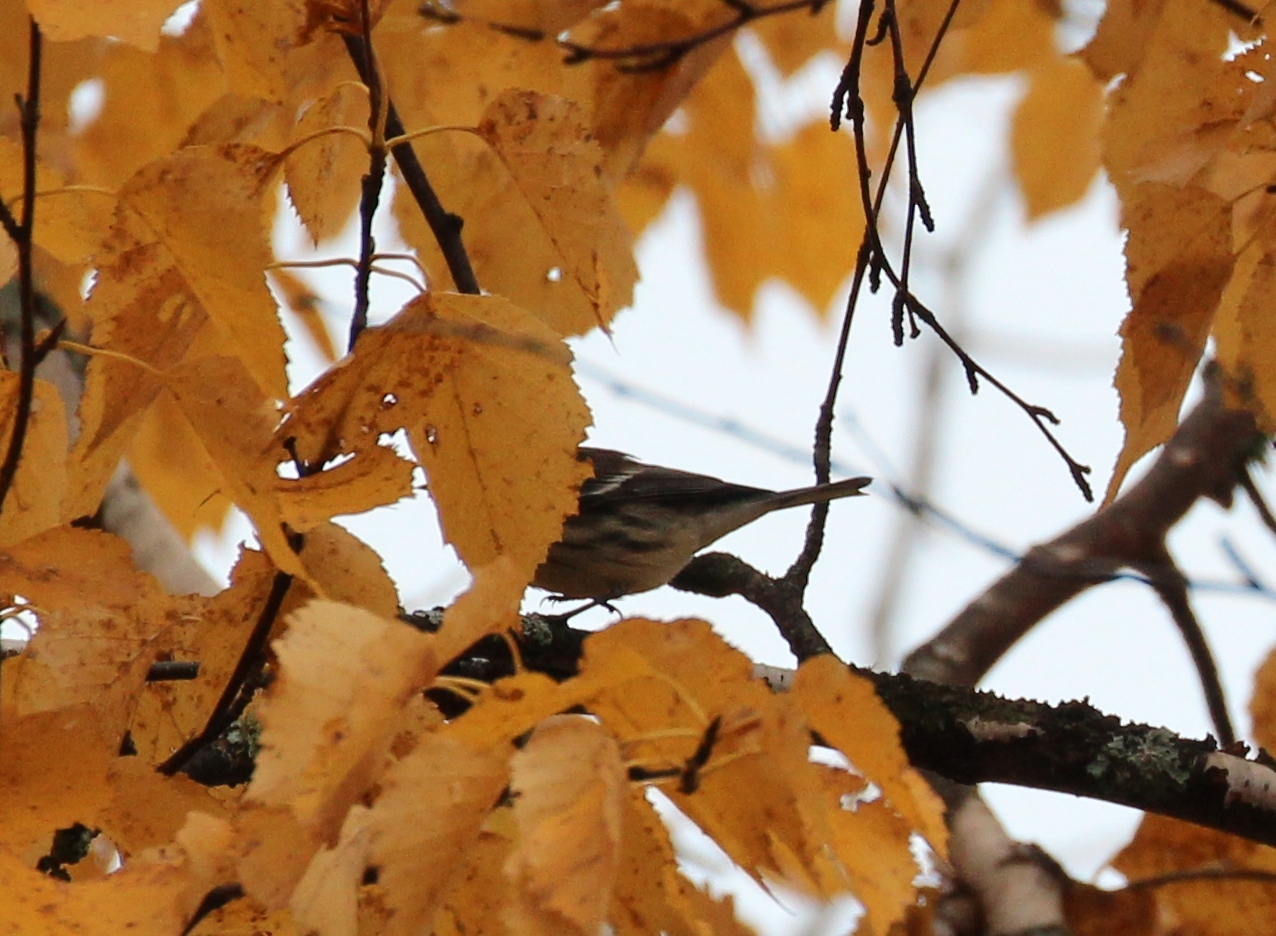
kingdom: Animalia
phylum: Chordata
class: Aves
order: Passeriformes
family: Parulidae
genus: Setophaga
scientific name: Setophaga coronata
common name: Myrtle warbler
